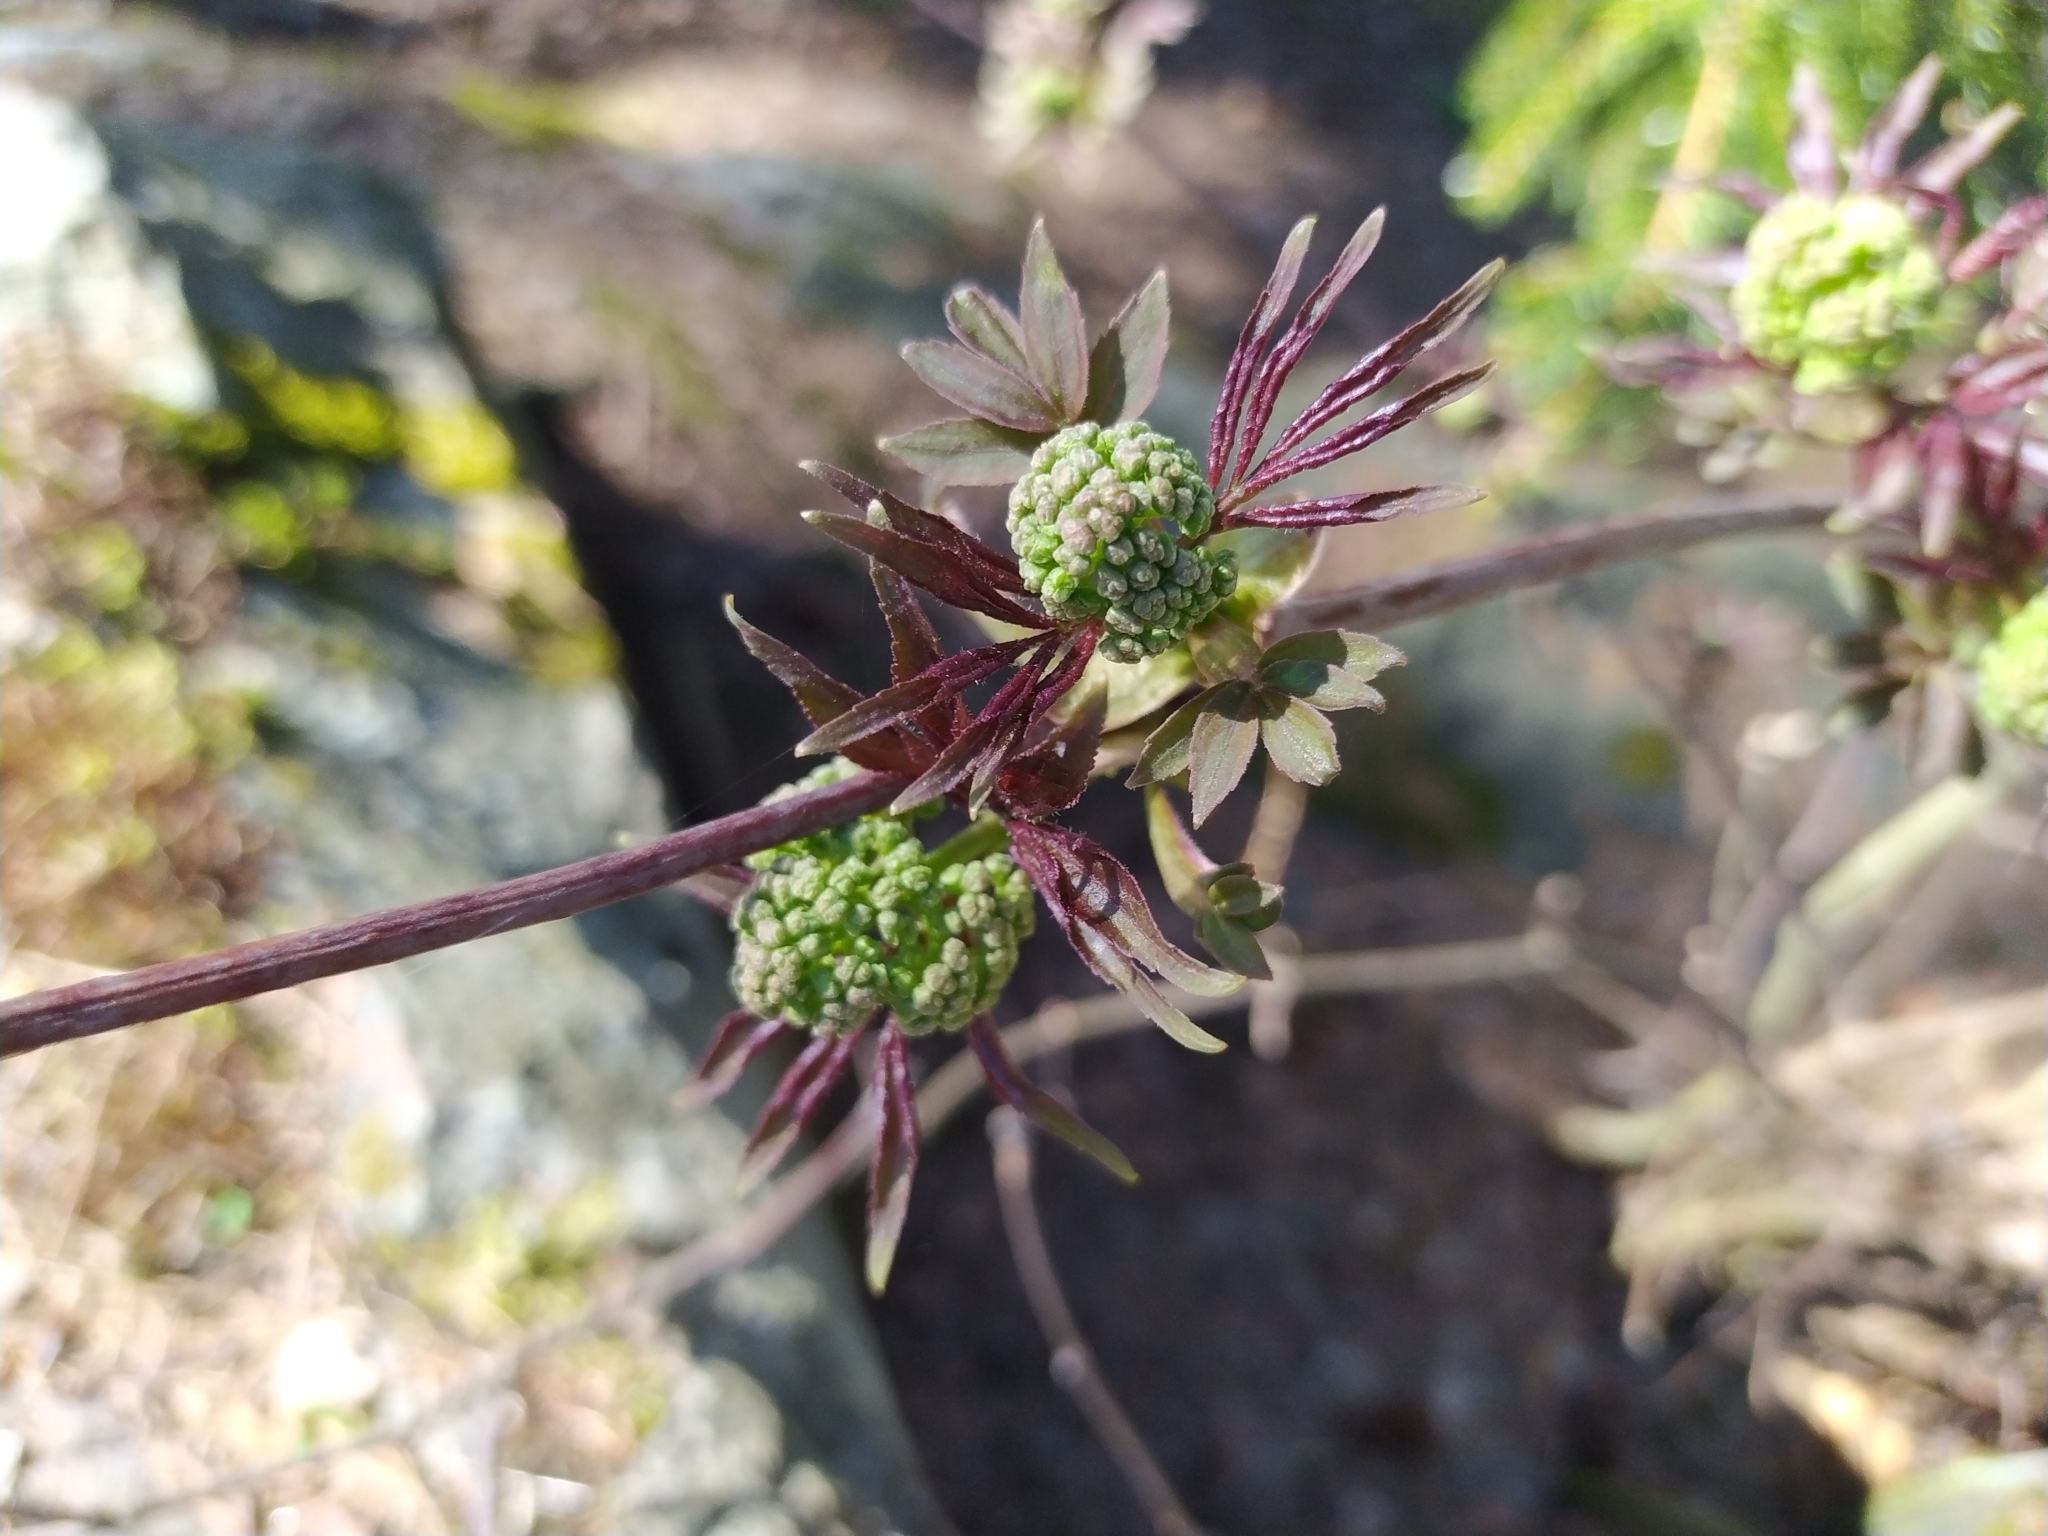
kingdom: Plantae
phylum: Tracheophyta
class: Magnoliopsida
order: Dipsacales
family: Viburnaceae
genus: Sambucus
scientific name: Sambucus racemosa
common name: Red-berried elder
